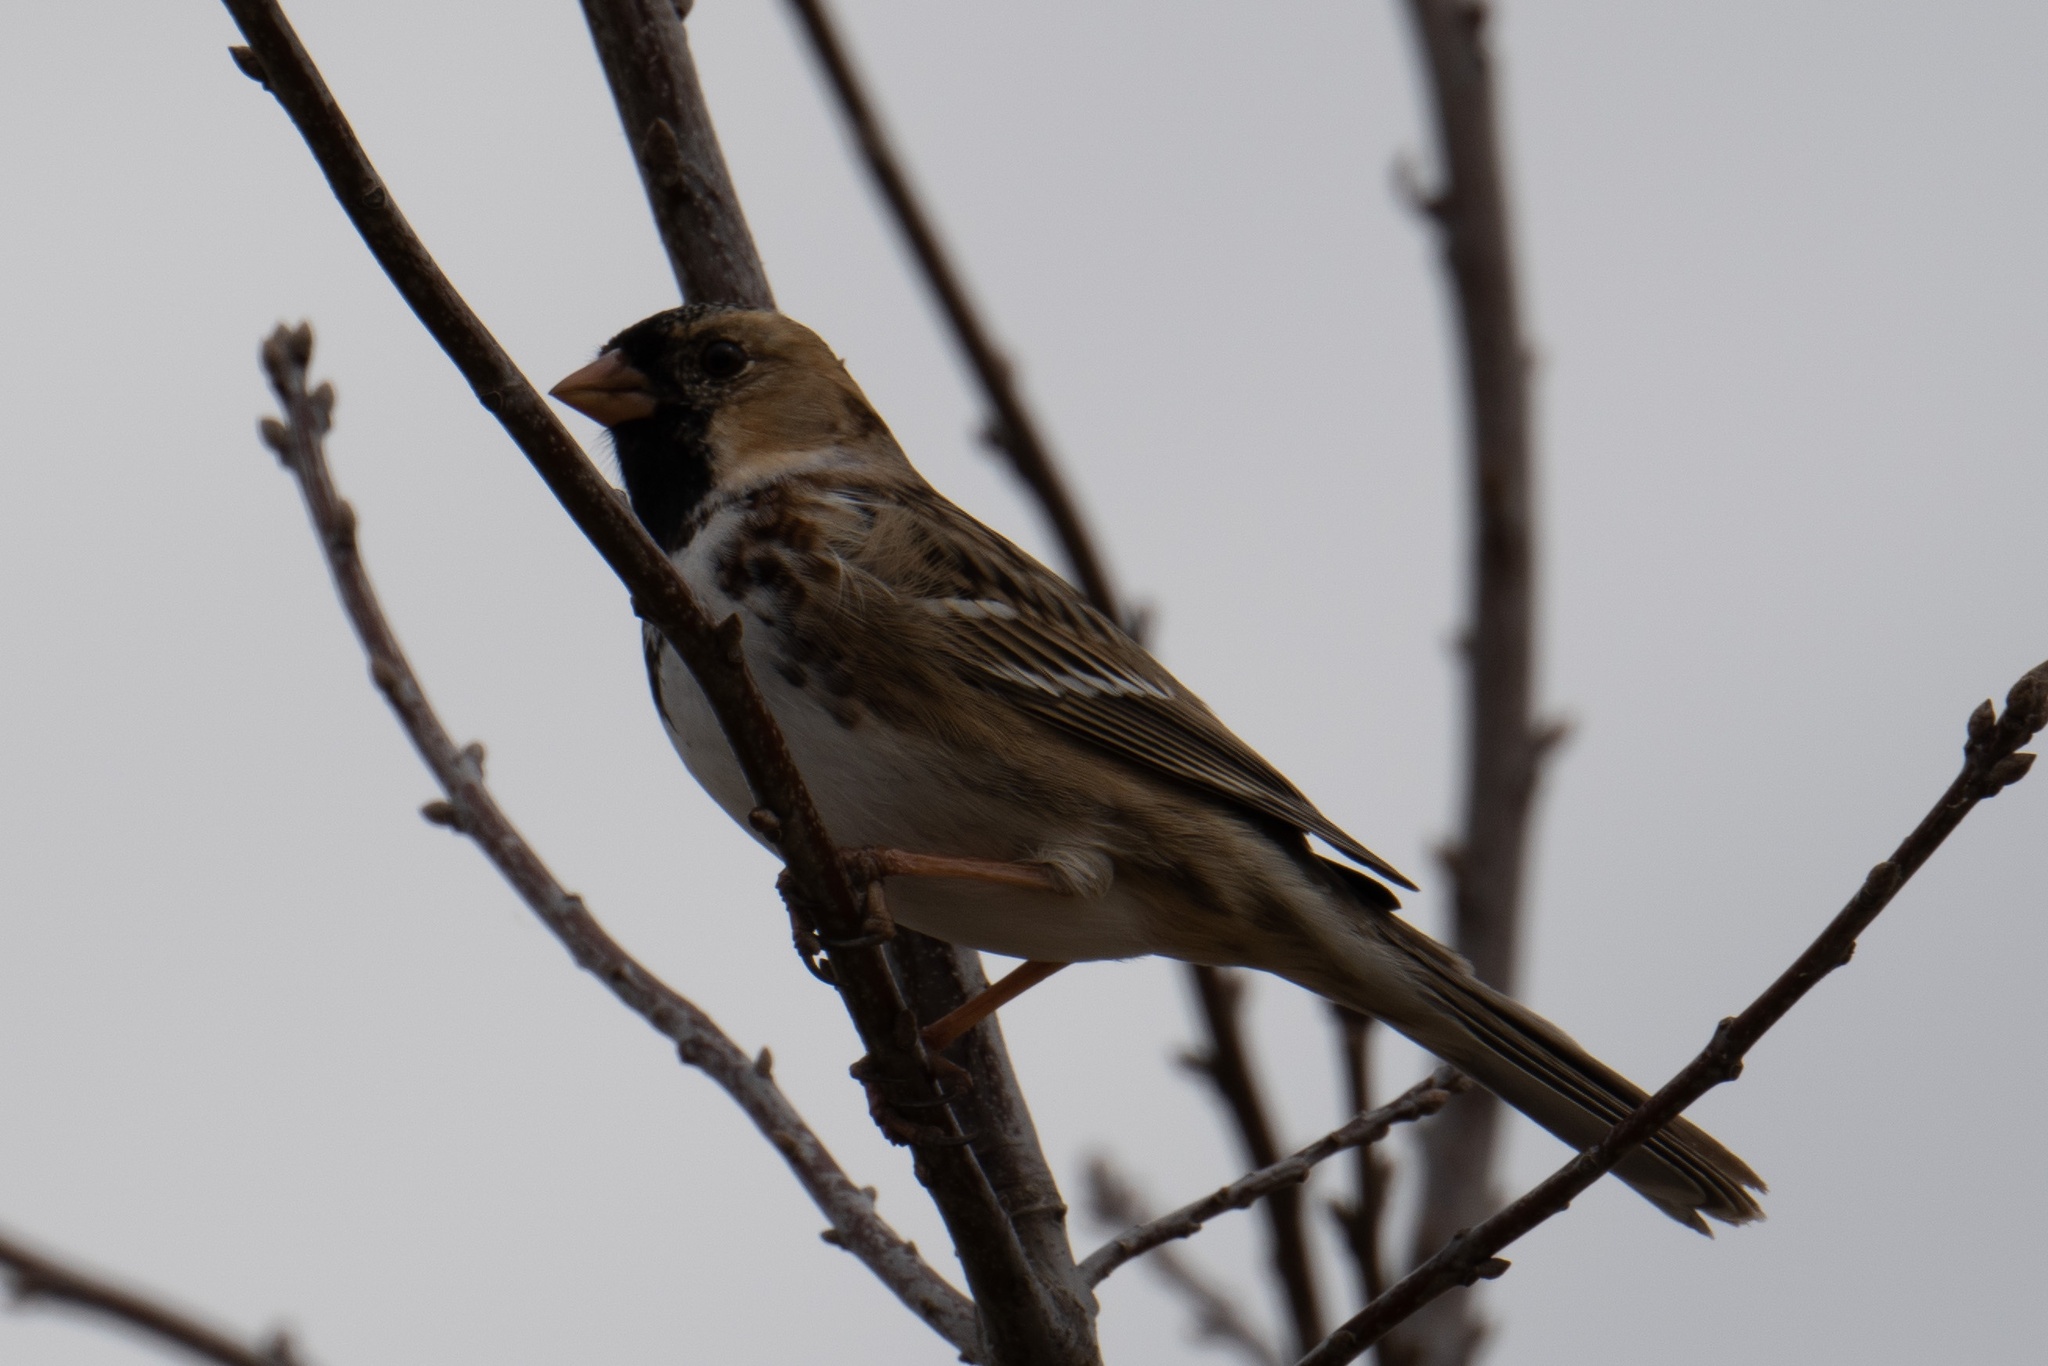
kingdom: Animalia
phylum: Chordata
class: Aves
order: Passeriformes
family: Passeridae
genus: Passer
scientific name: Passer domesticus
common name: House sparrow
